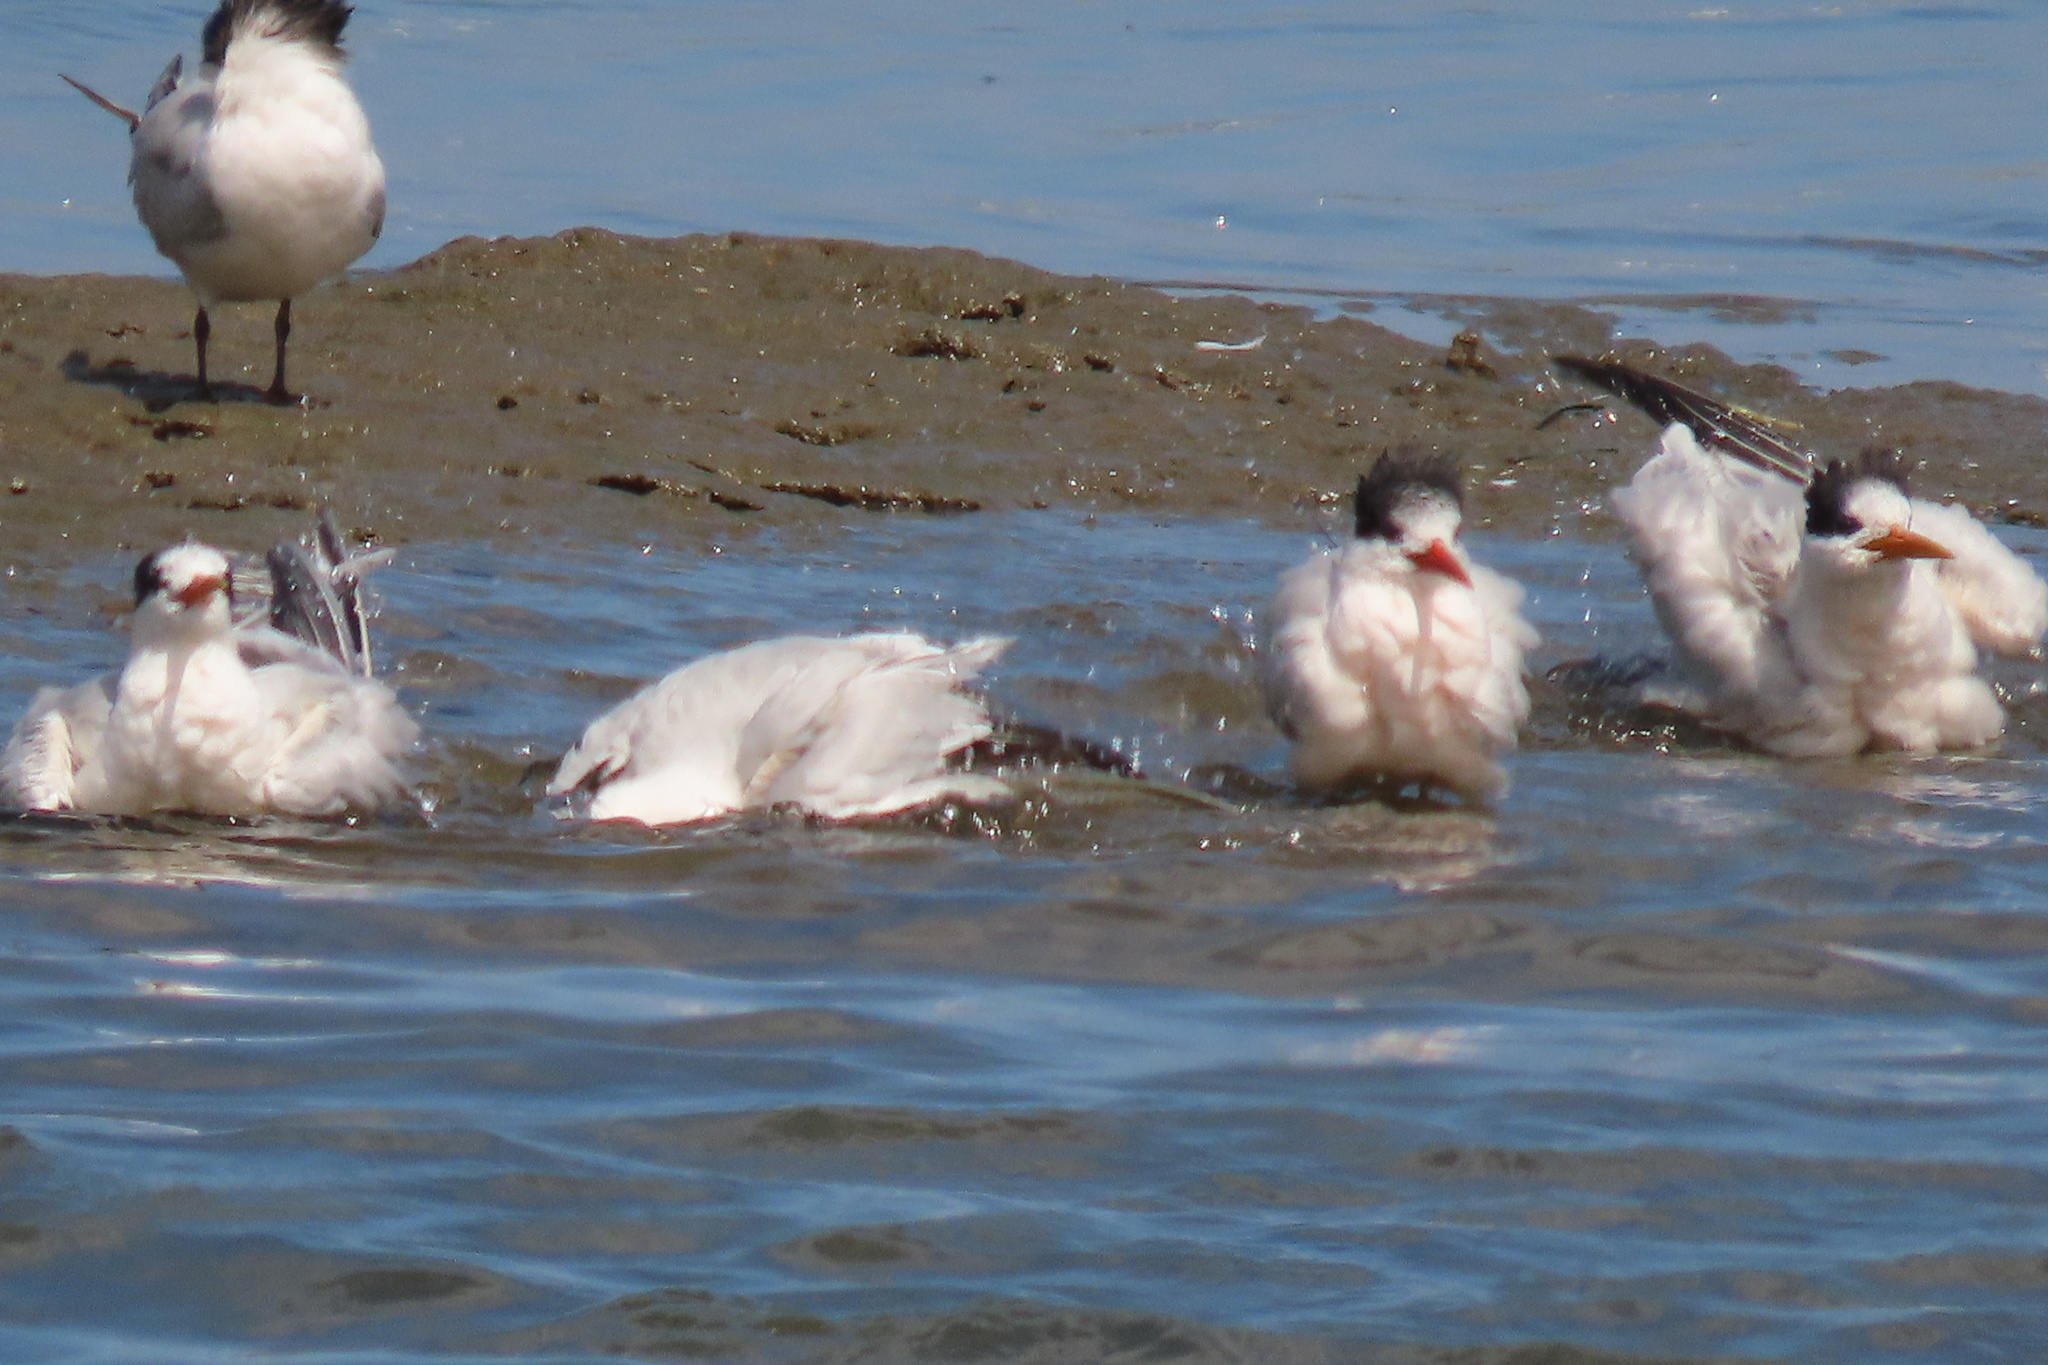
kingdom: Animalia
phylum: Chordata
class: Aves
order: Charadriiformes
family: Laridae
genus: Thalasseus
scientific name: Thalasseus maximus
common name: Royal tern
